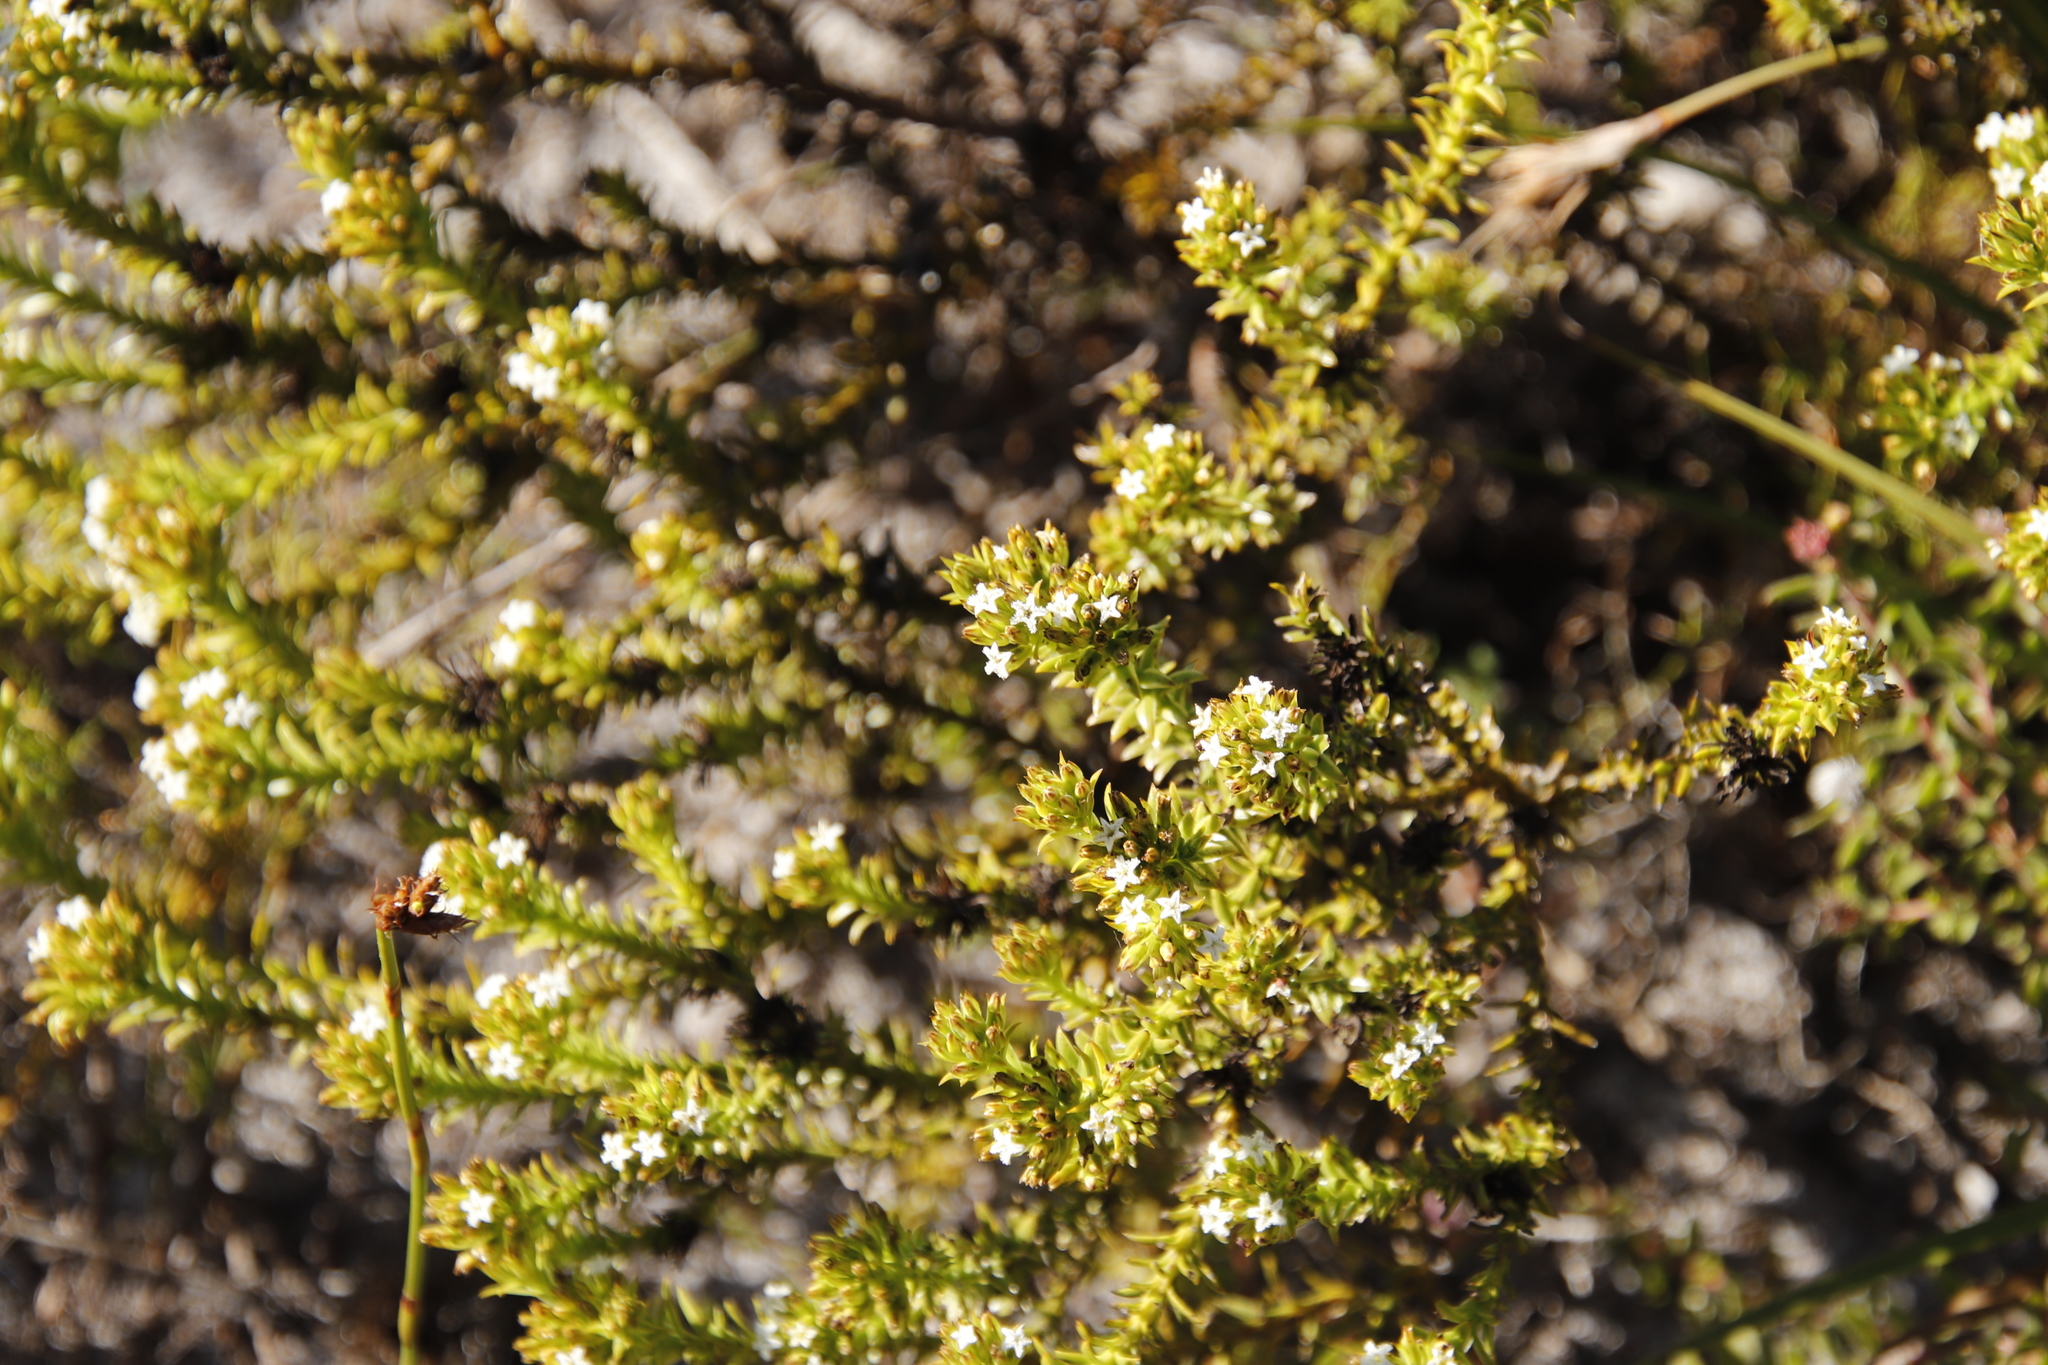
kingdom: Plantae
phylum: Tracheophyta
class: Magnoliopsida
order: Santalales
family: Thesiaceae
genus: Thesium
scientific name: Thesium viridifolium
